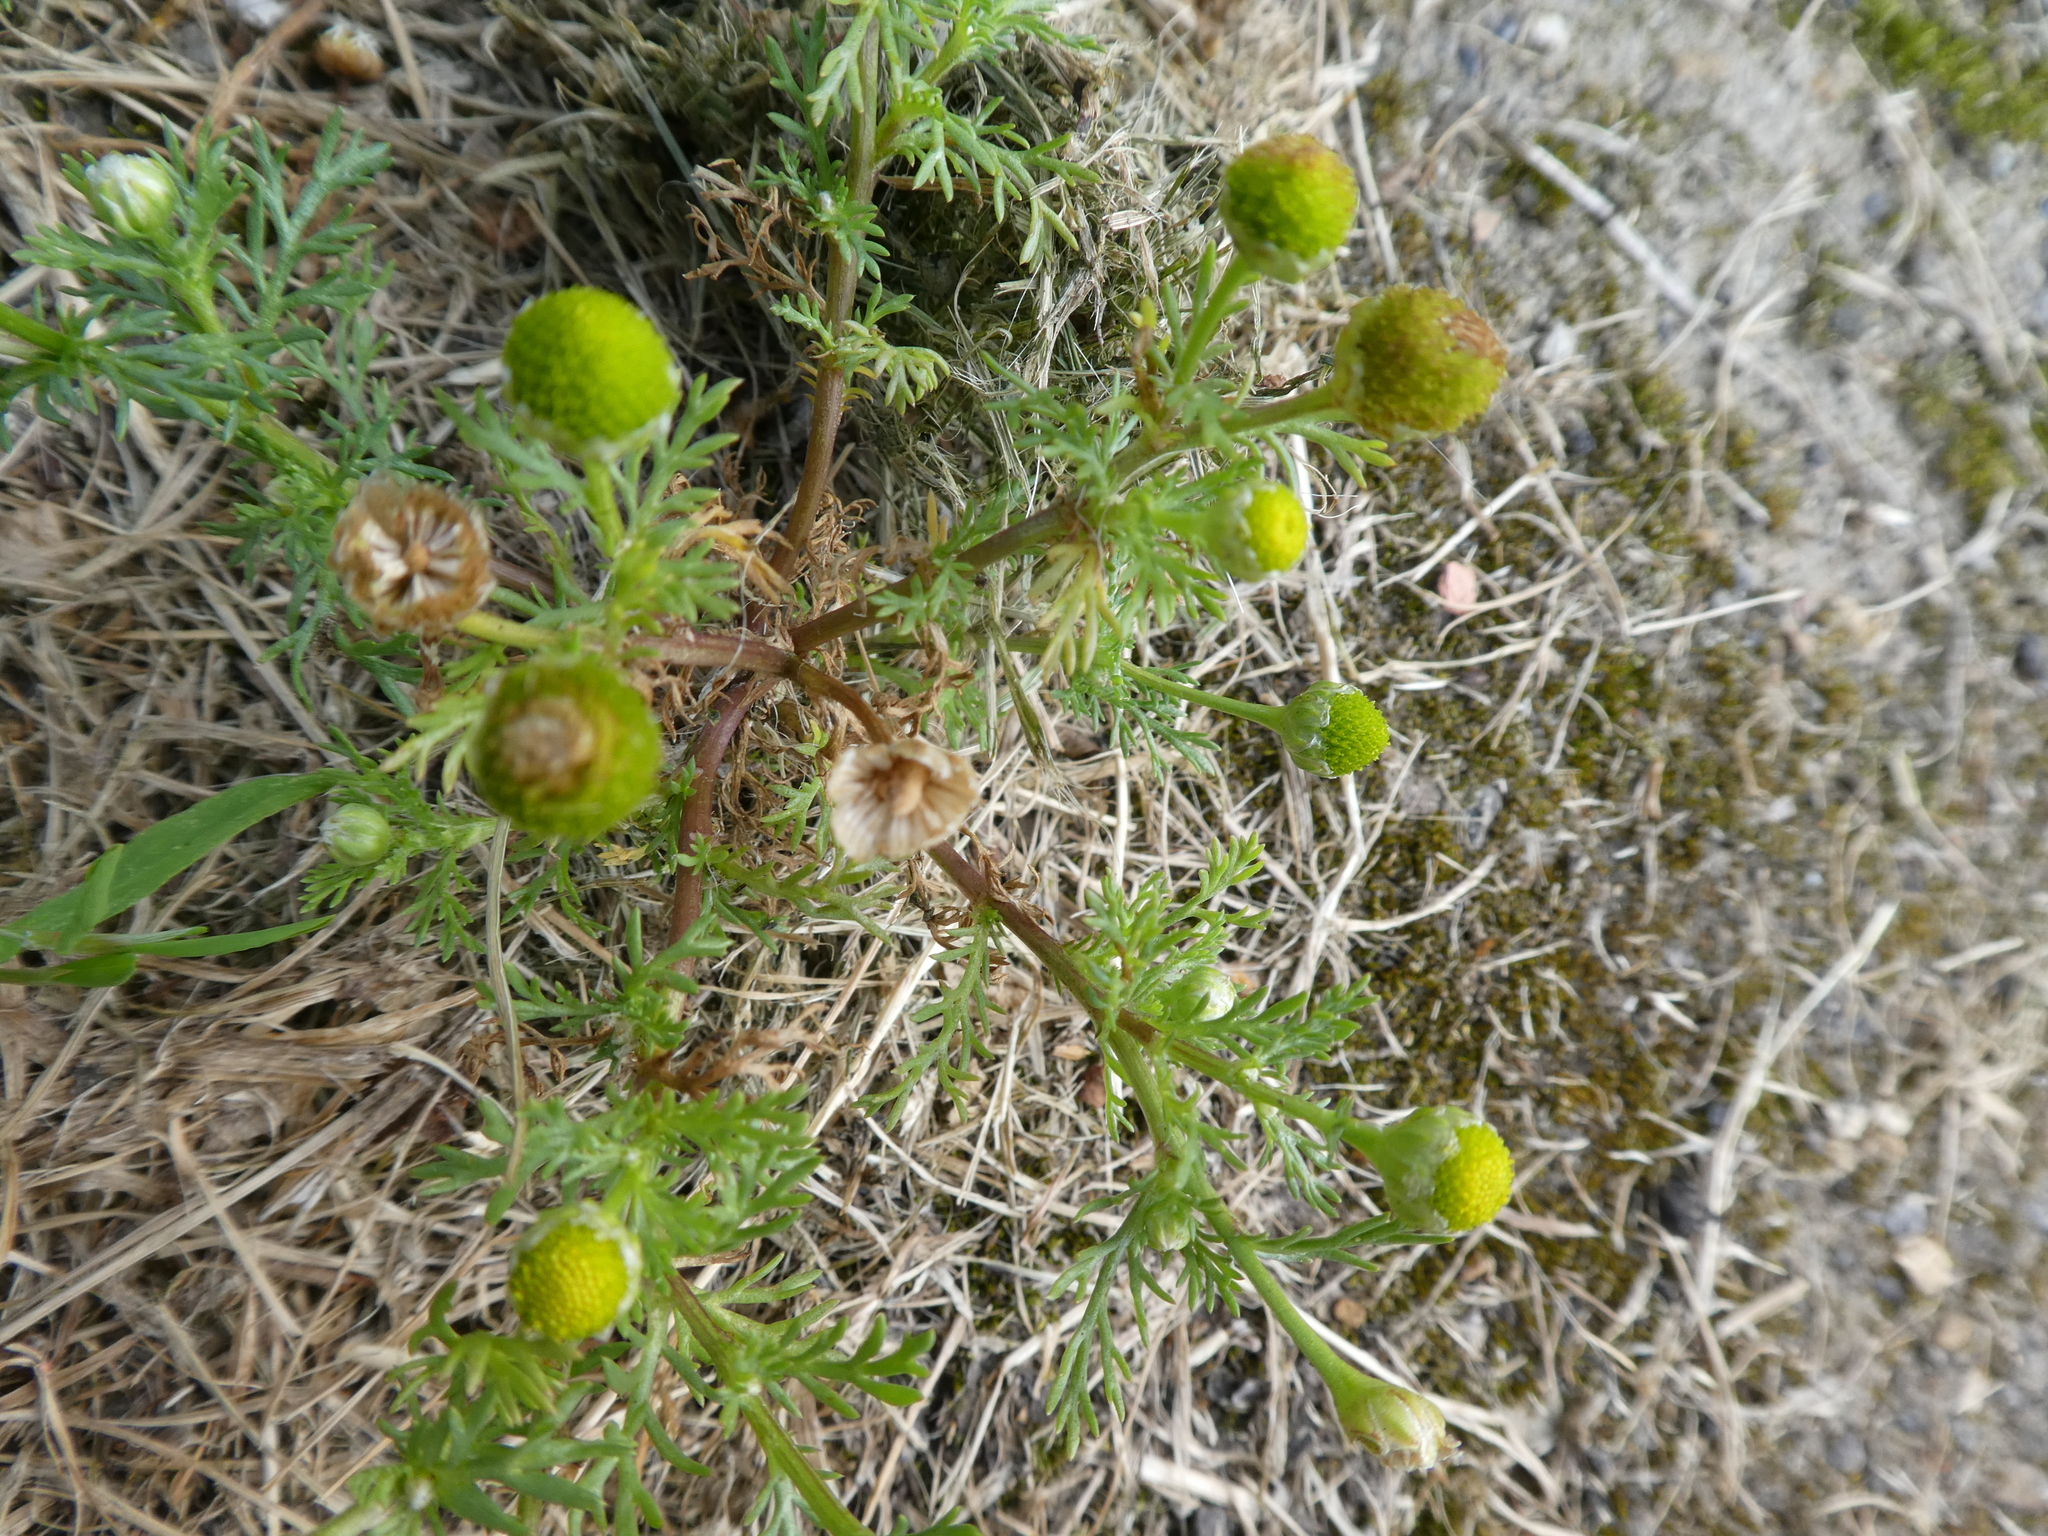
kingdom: Plantae
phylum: Tracheophyta
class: Magnoliopsida
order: Asterales
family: Asteraceae
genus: Matricaria
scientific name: Matricaria discoidea
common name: Disc mayweed
